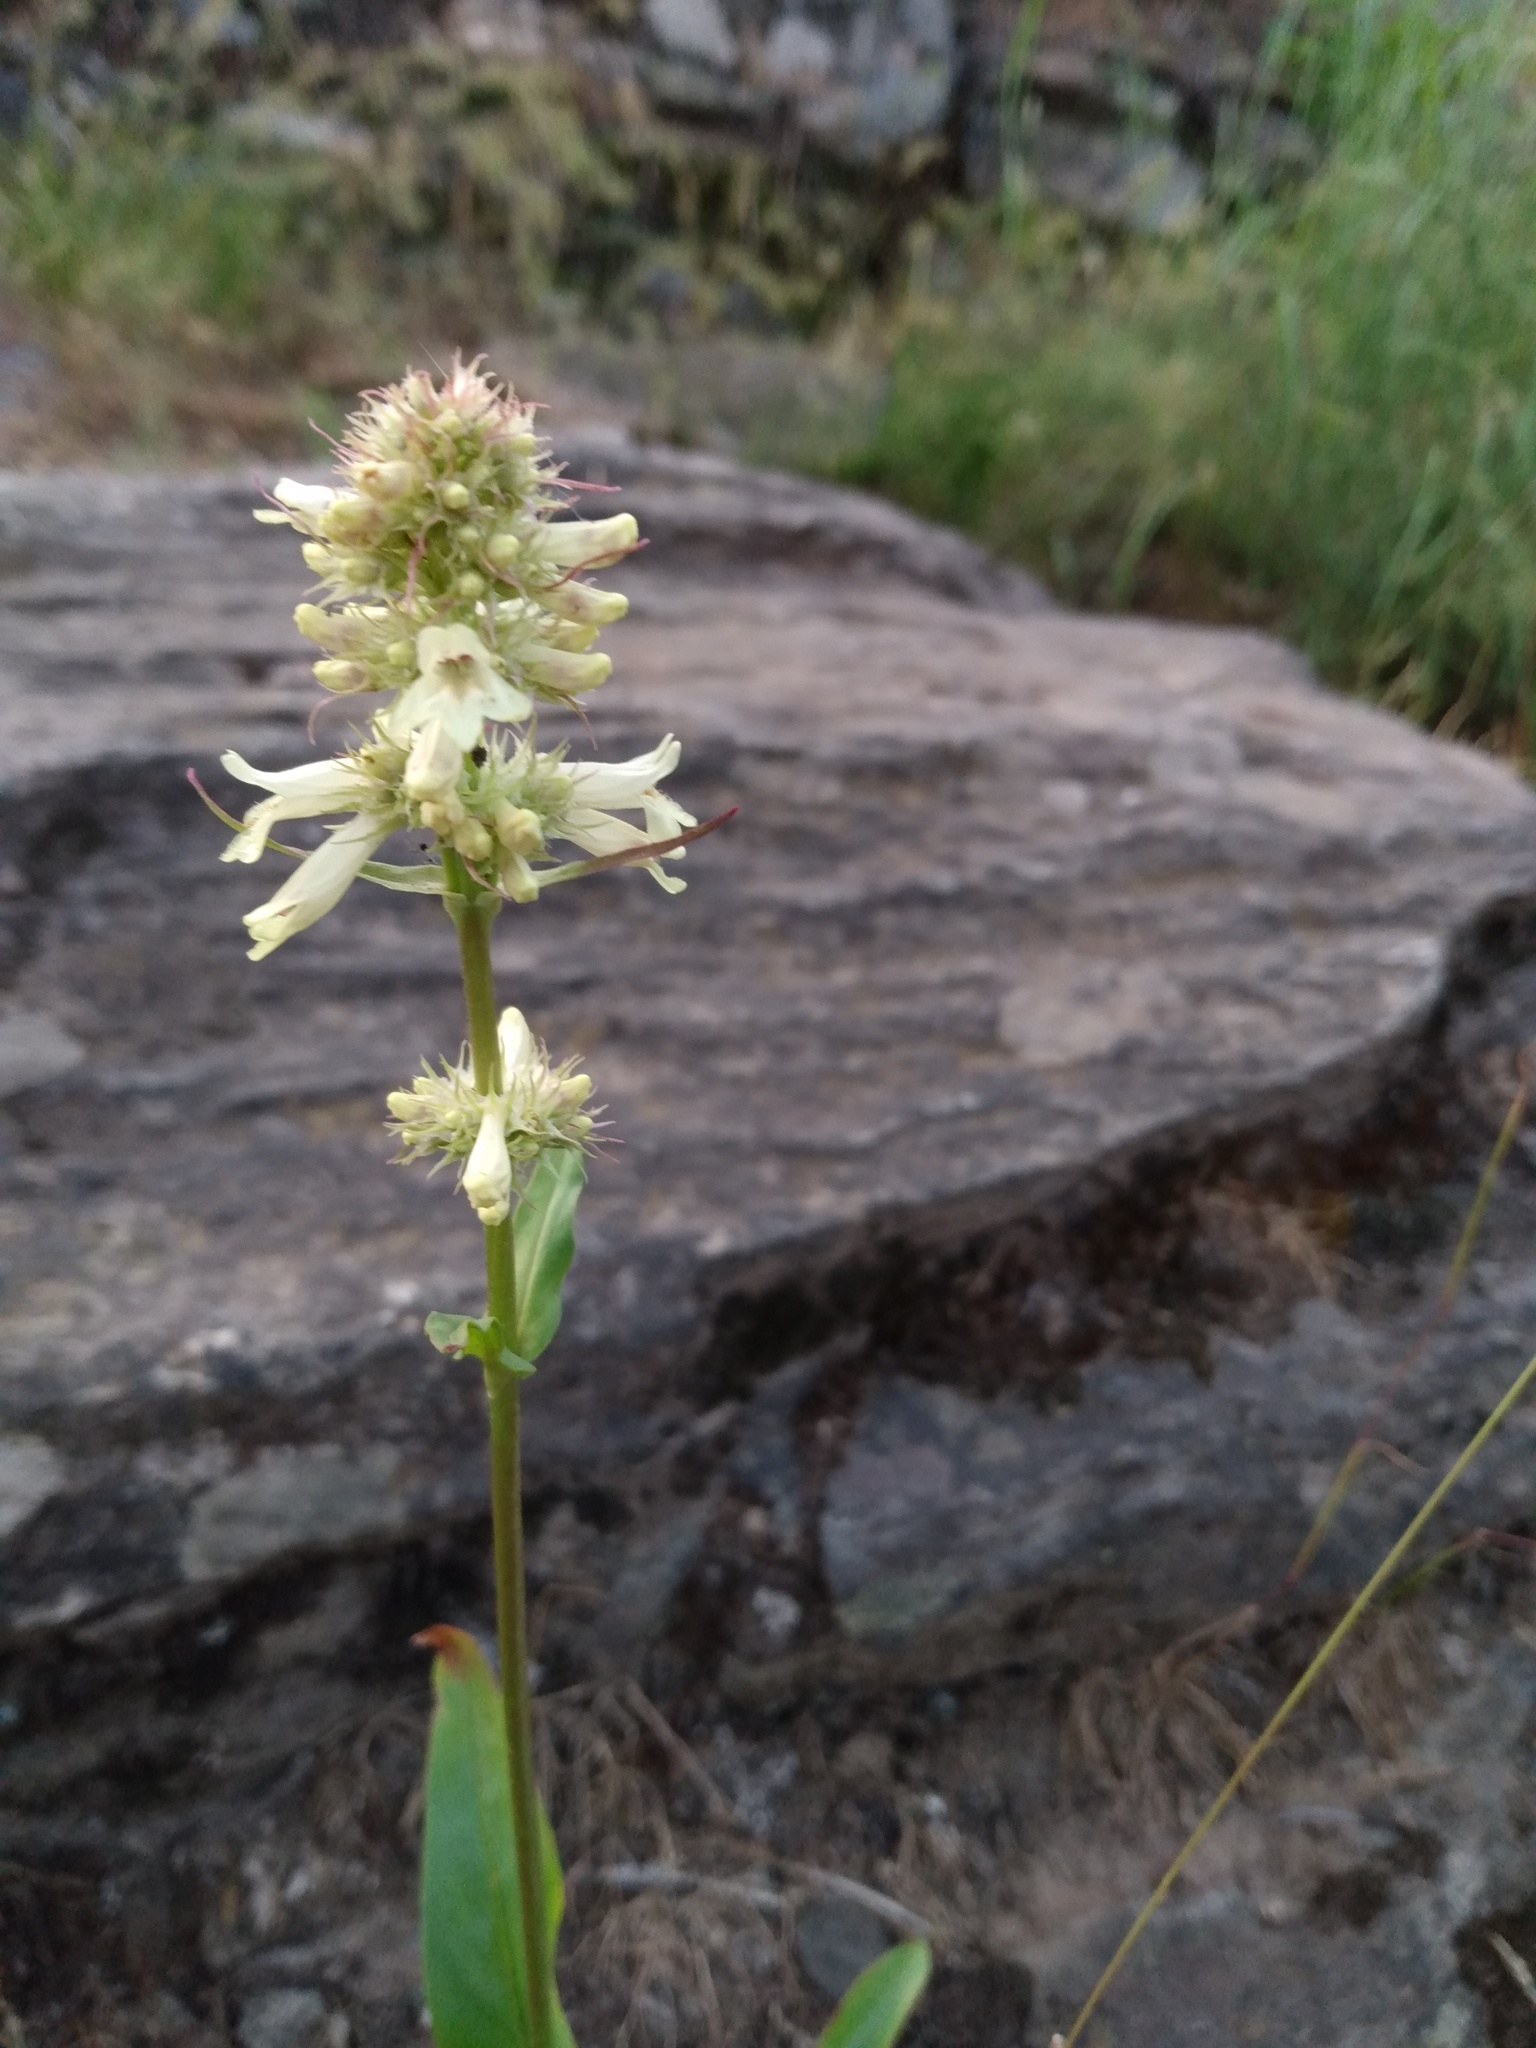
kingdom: Plantae
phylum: Tracheophyta
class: Magnoliopsida
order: Lamiales
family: Plantaginaceae
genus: Penstemon
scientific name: Penstemon confertus
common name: Lesser yellow beardtongue
